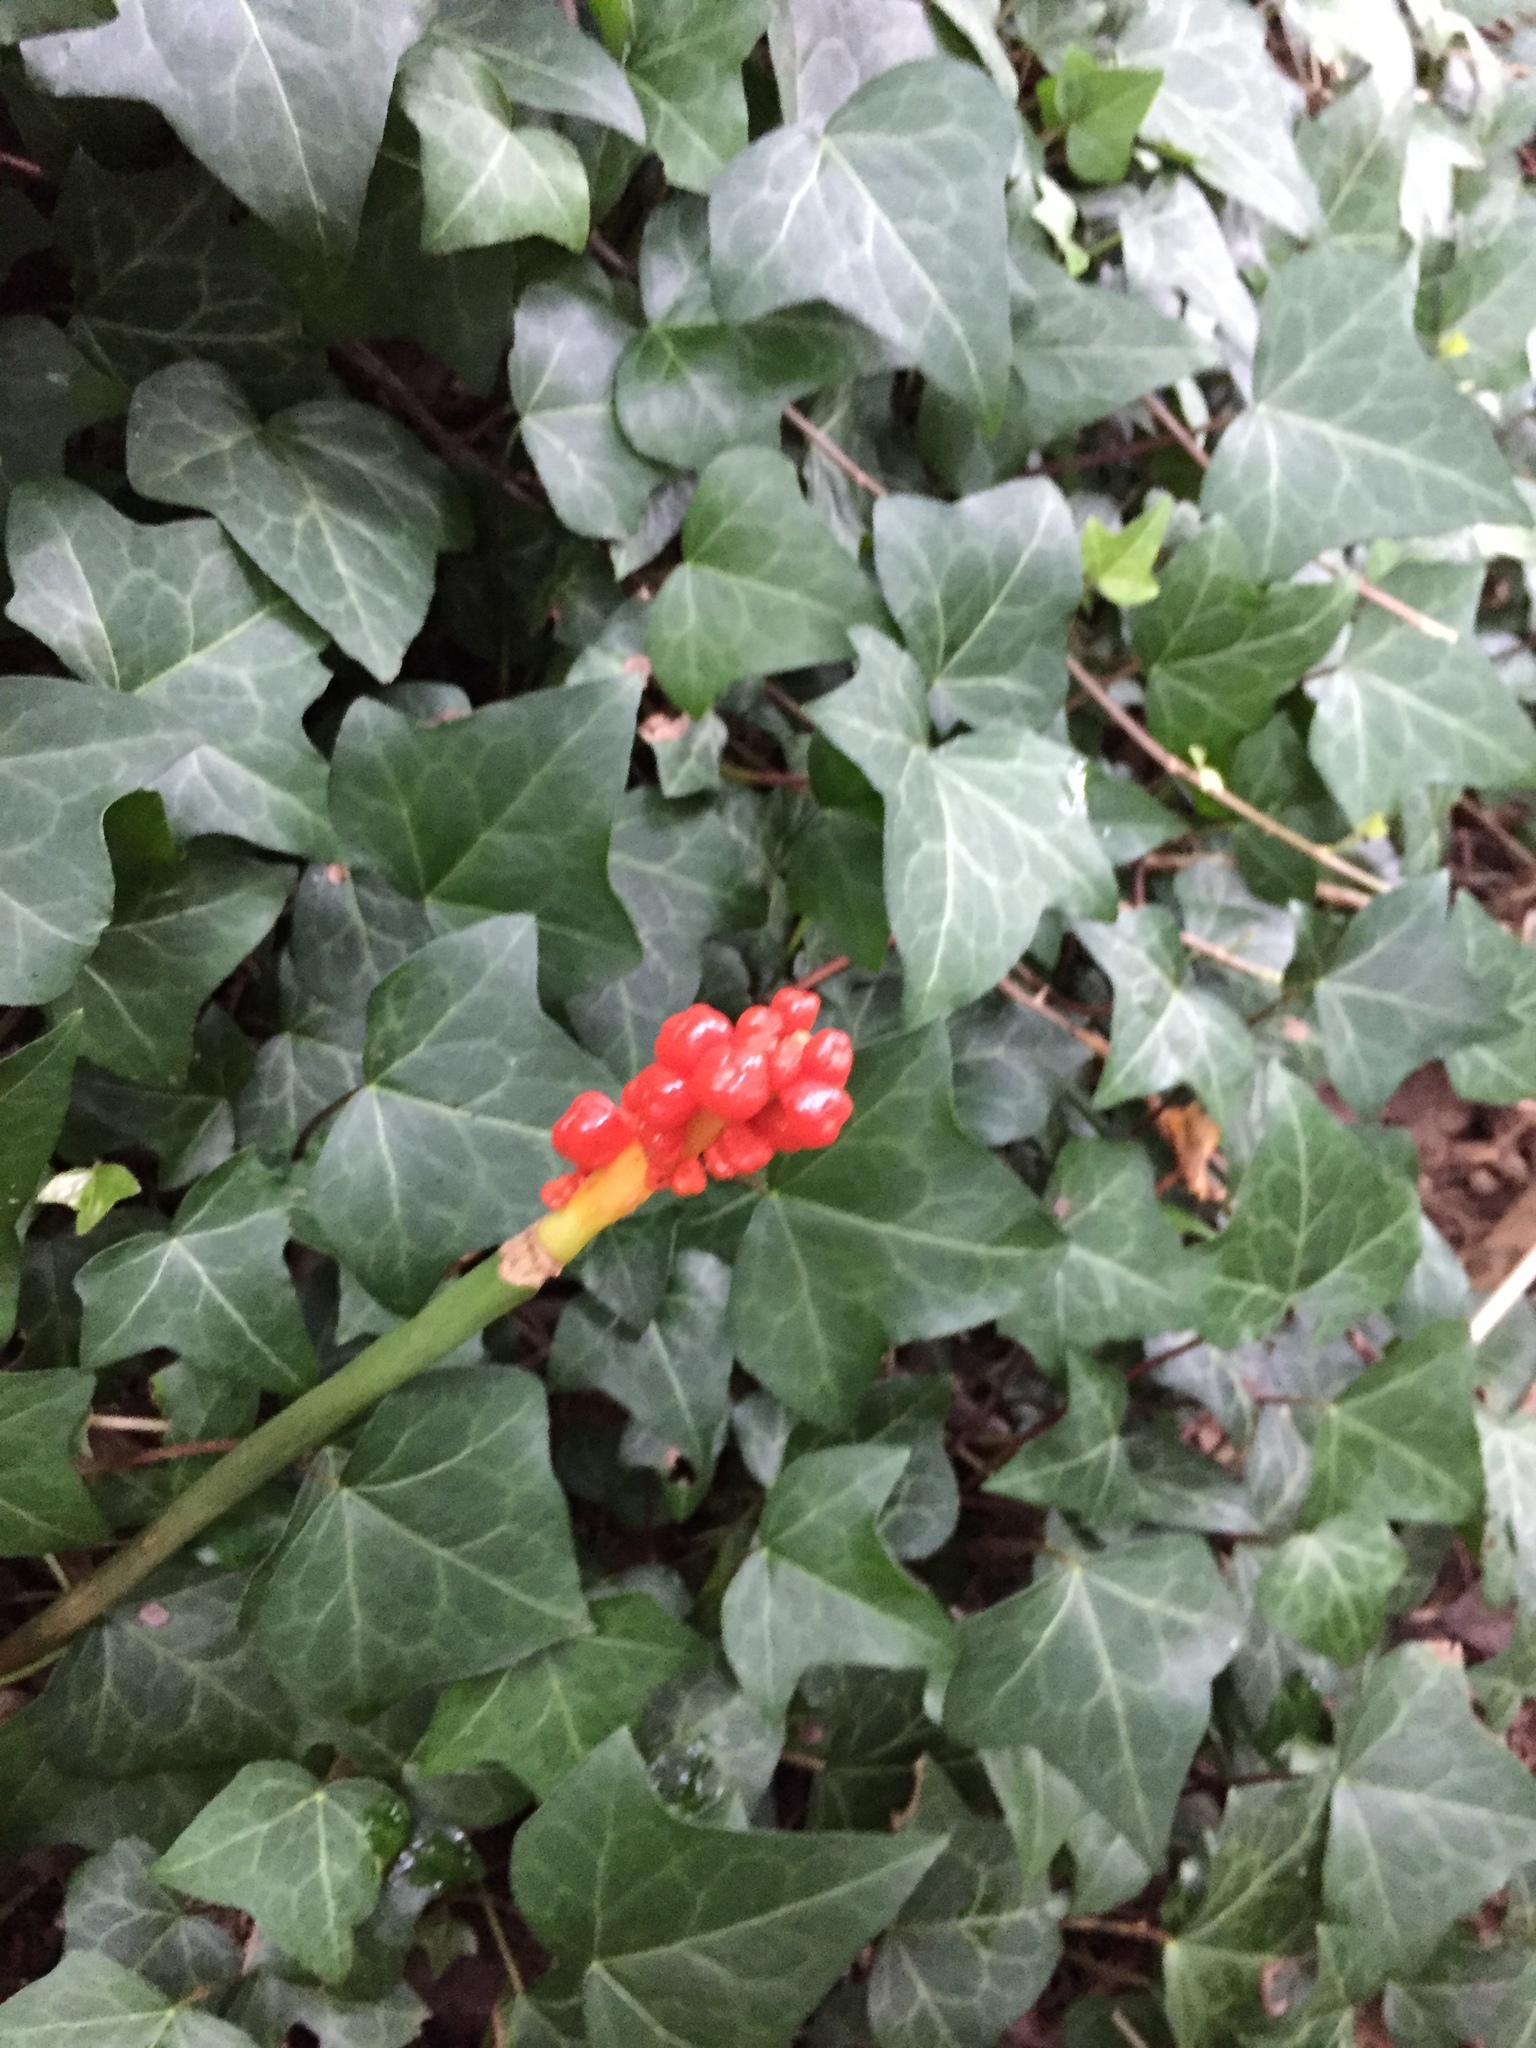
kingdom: Plantae
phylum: Tracheophyta
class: Liliopsida
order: Alismatales
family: Araceae
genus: Arum
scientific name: Arum italicum
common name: Italian lords-and-ladies
